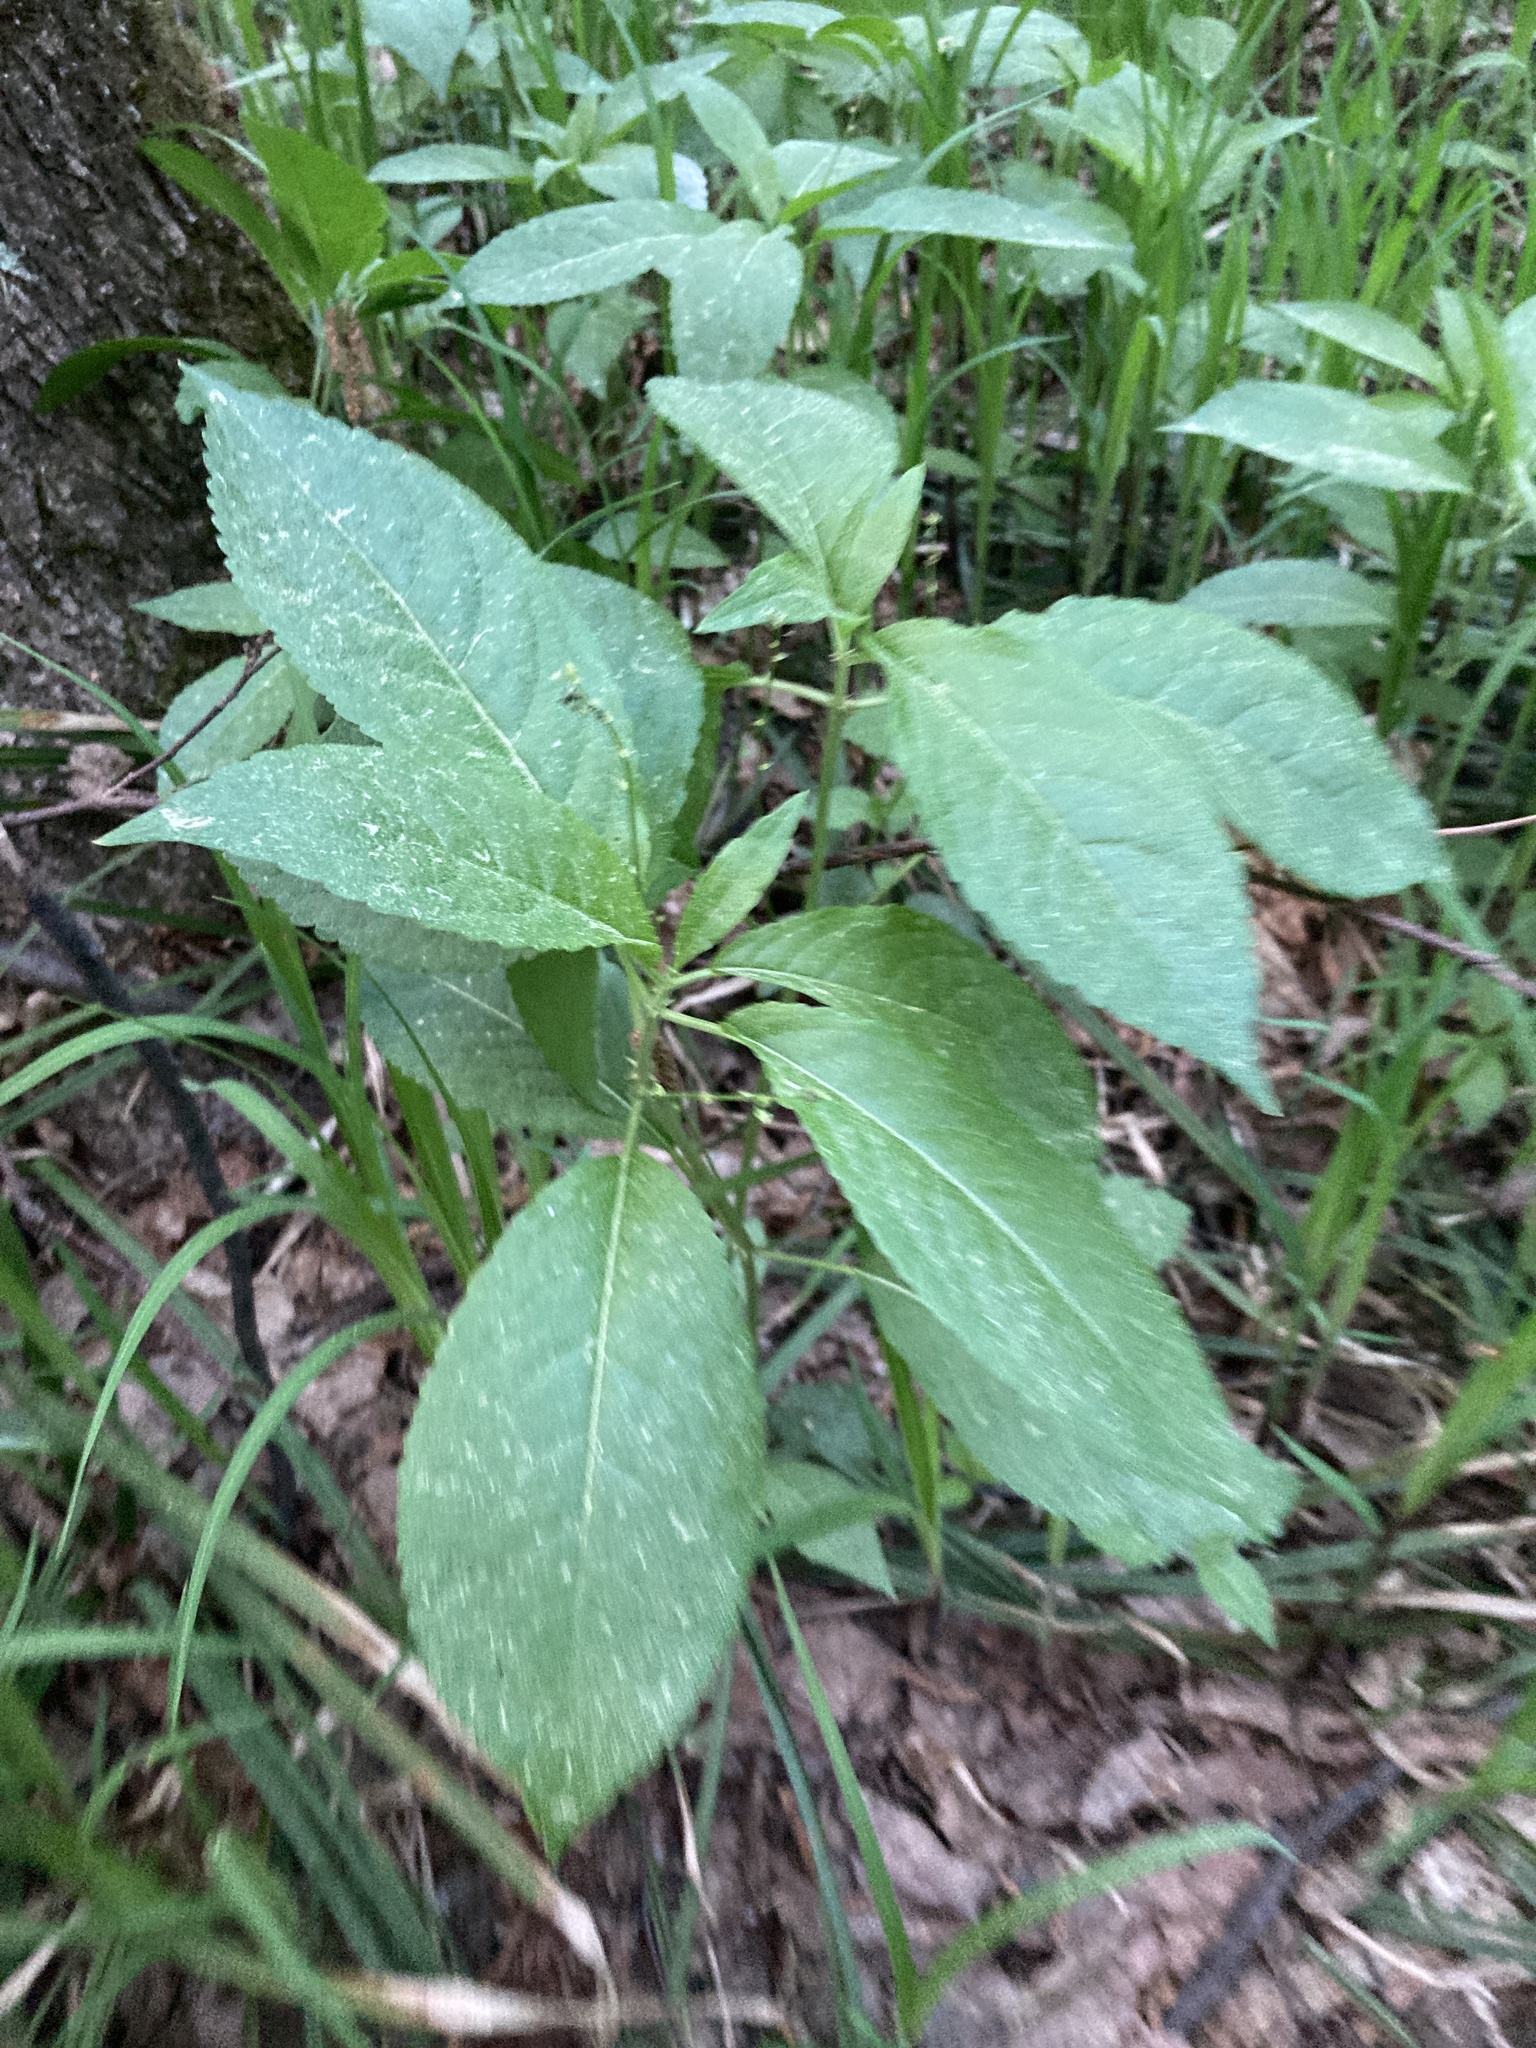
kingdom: Plantae
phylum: Tracheophyta
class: Magnoliopsida
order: Malpighiales
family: Euphorbiaceae
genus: Mercurialis
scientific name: Mercurialis perennis
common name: Dog mercury
